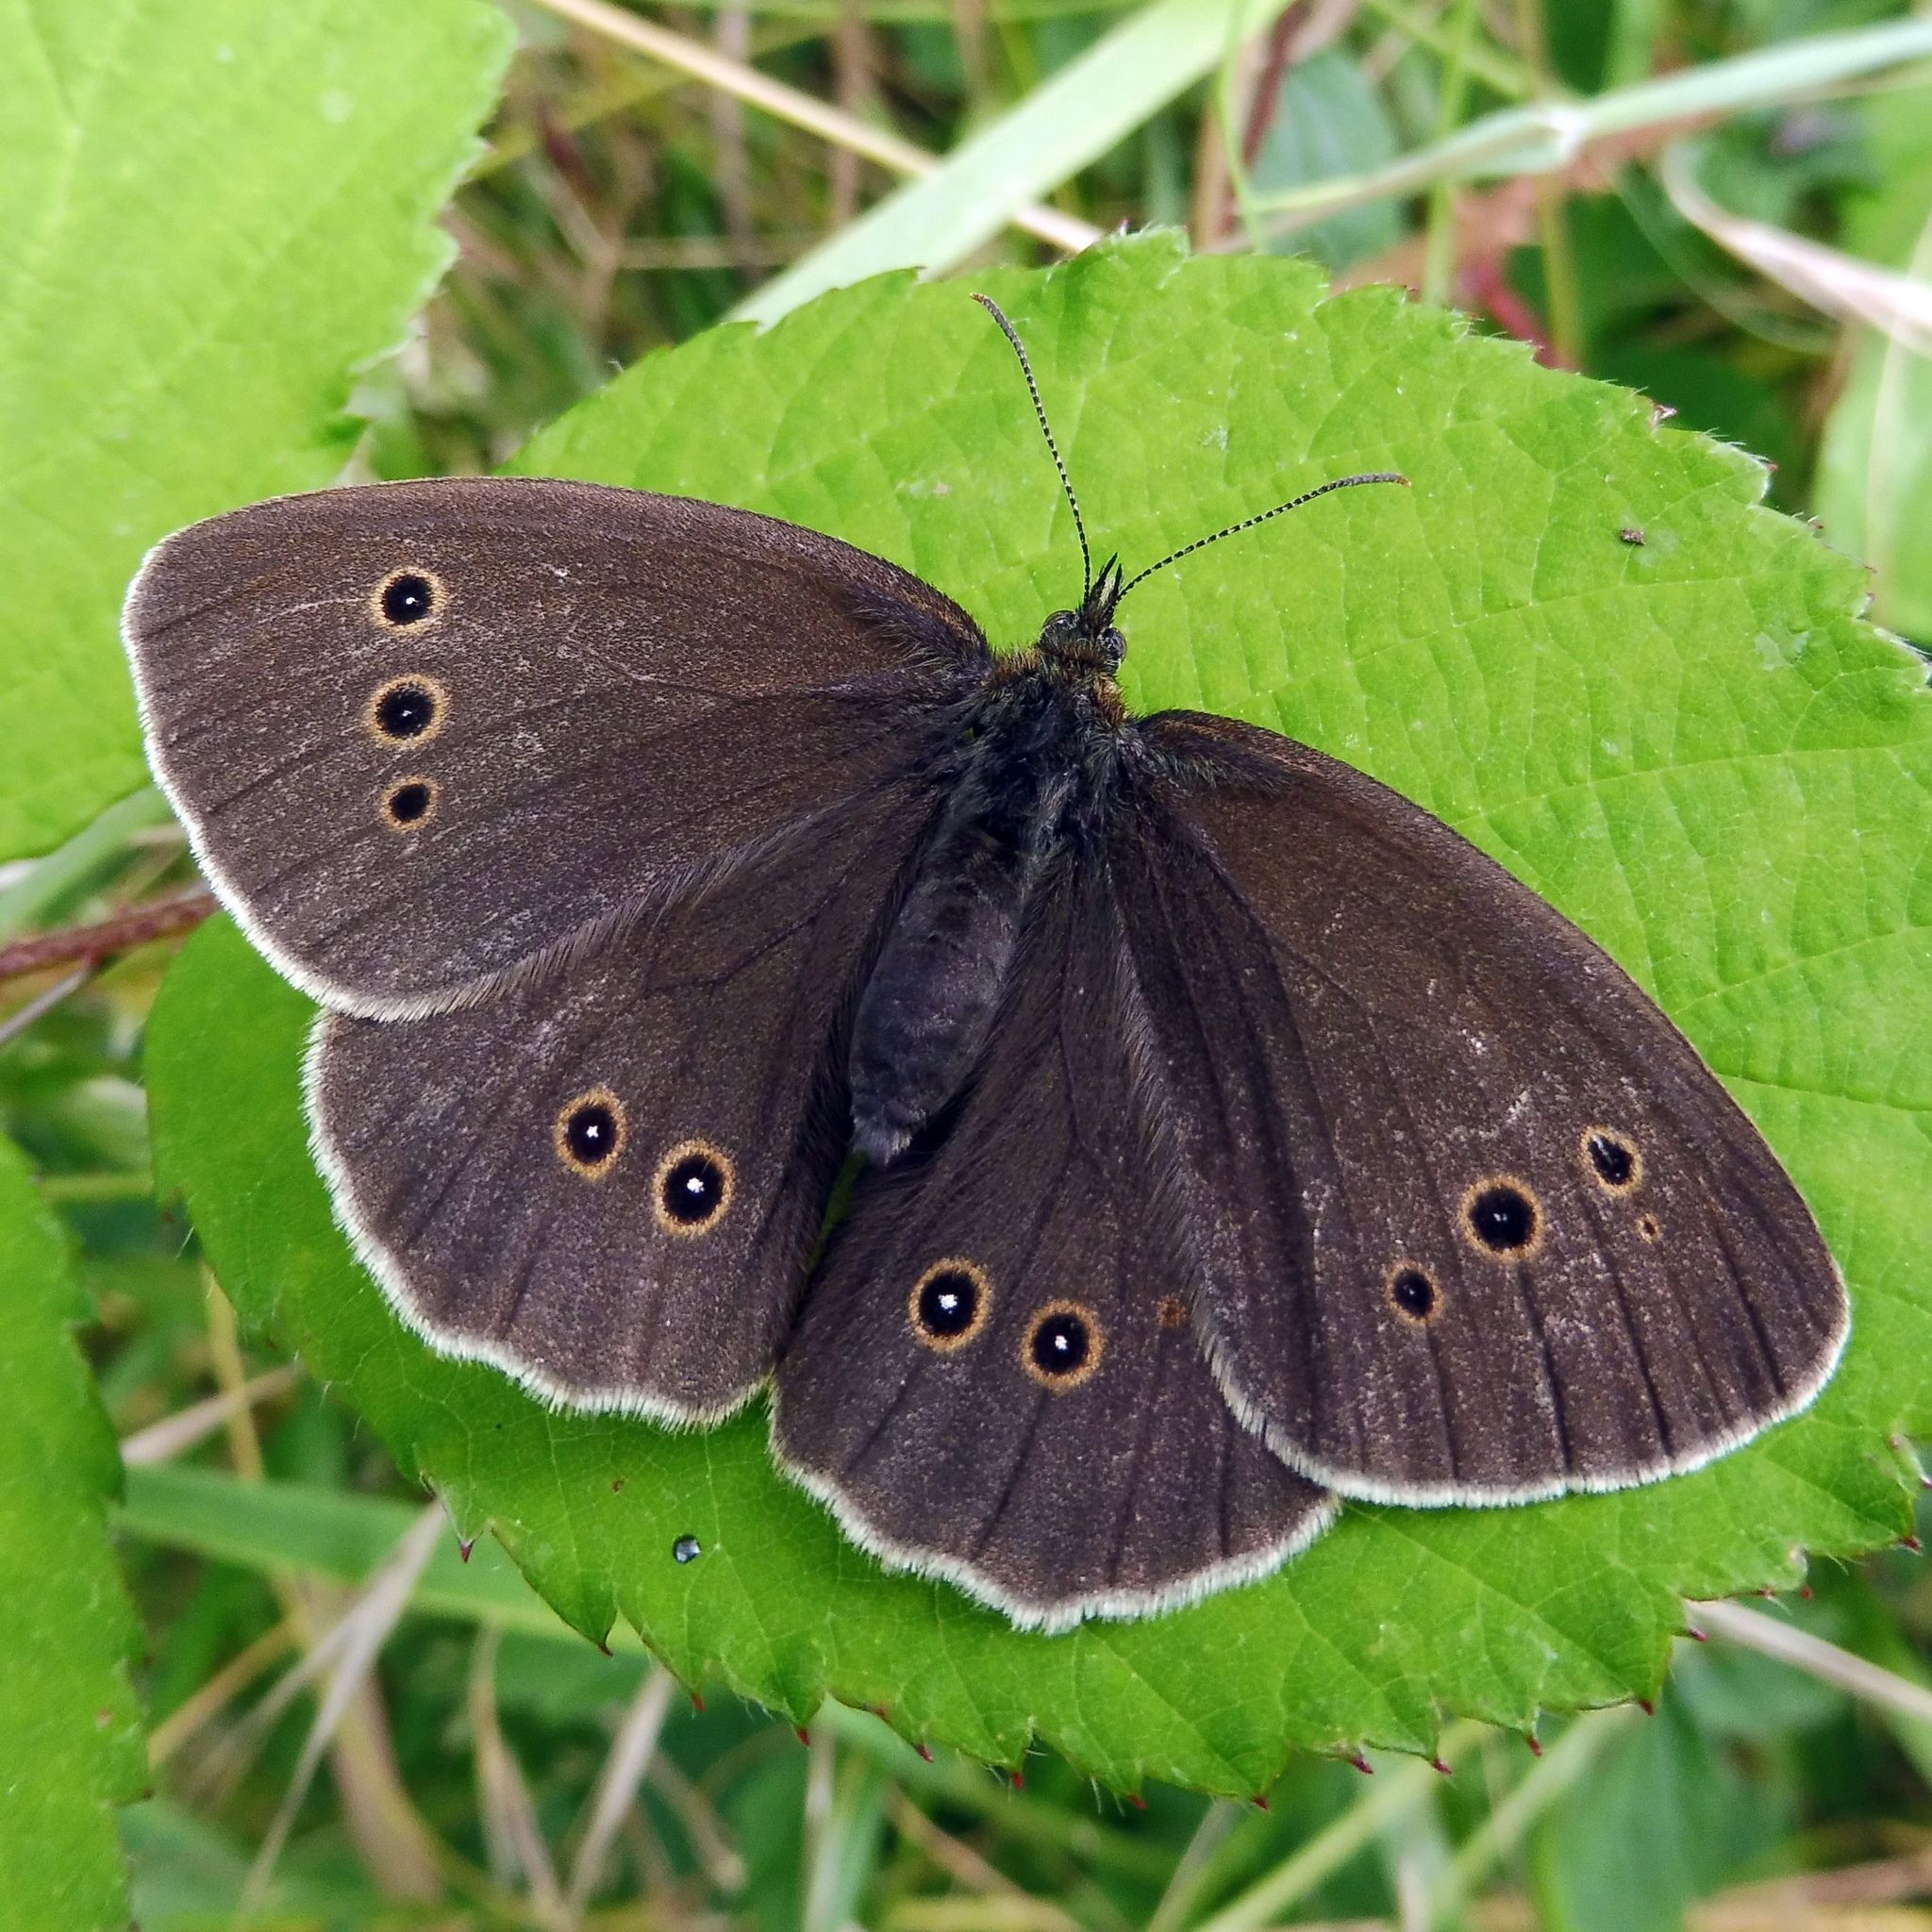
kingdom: Animalia
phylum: Arthropoda
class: Insecta
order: Lepidoptera
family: Nymphalidae
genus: Aphantopus
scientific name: Aphantopus hyperantus
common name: Ringlet
